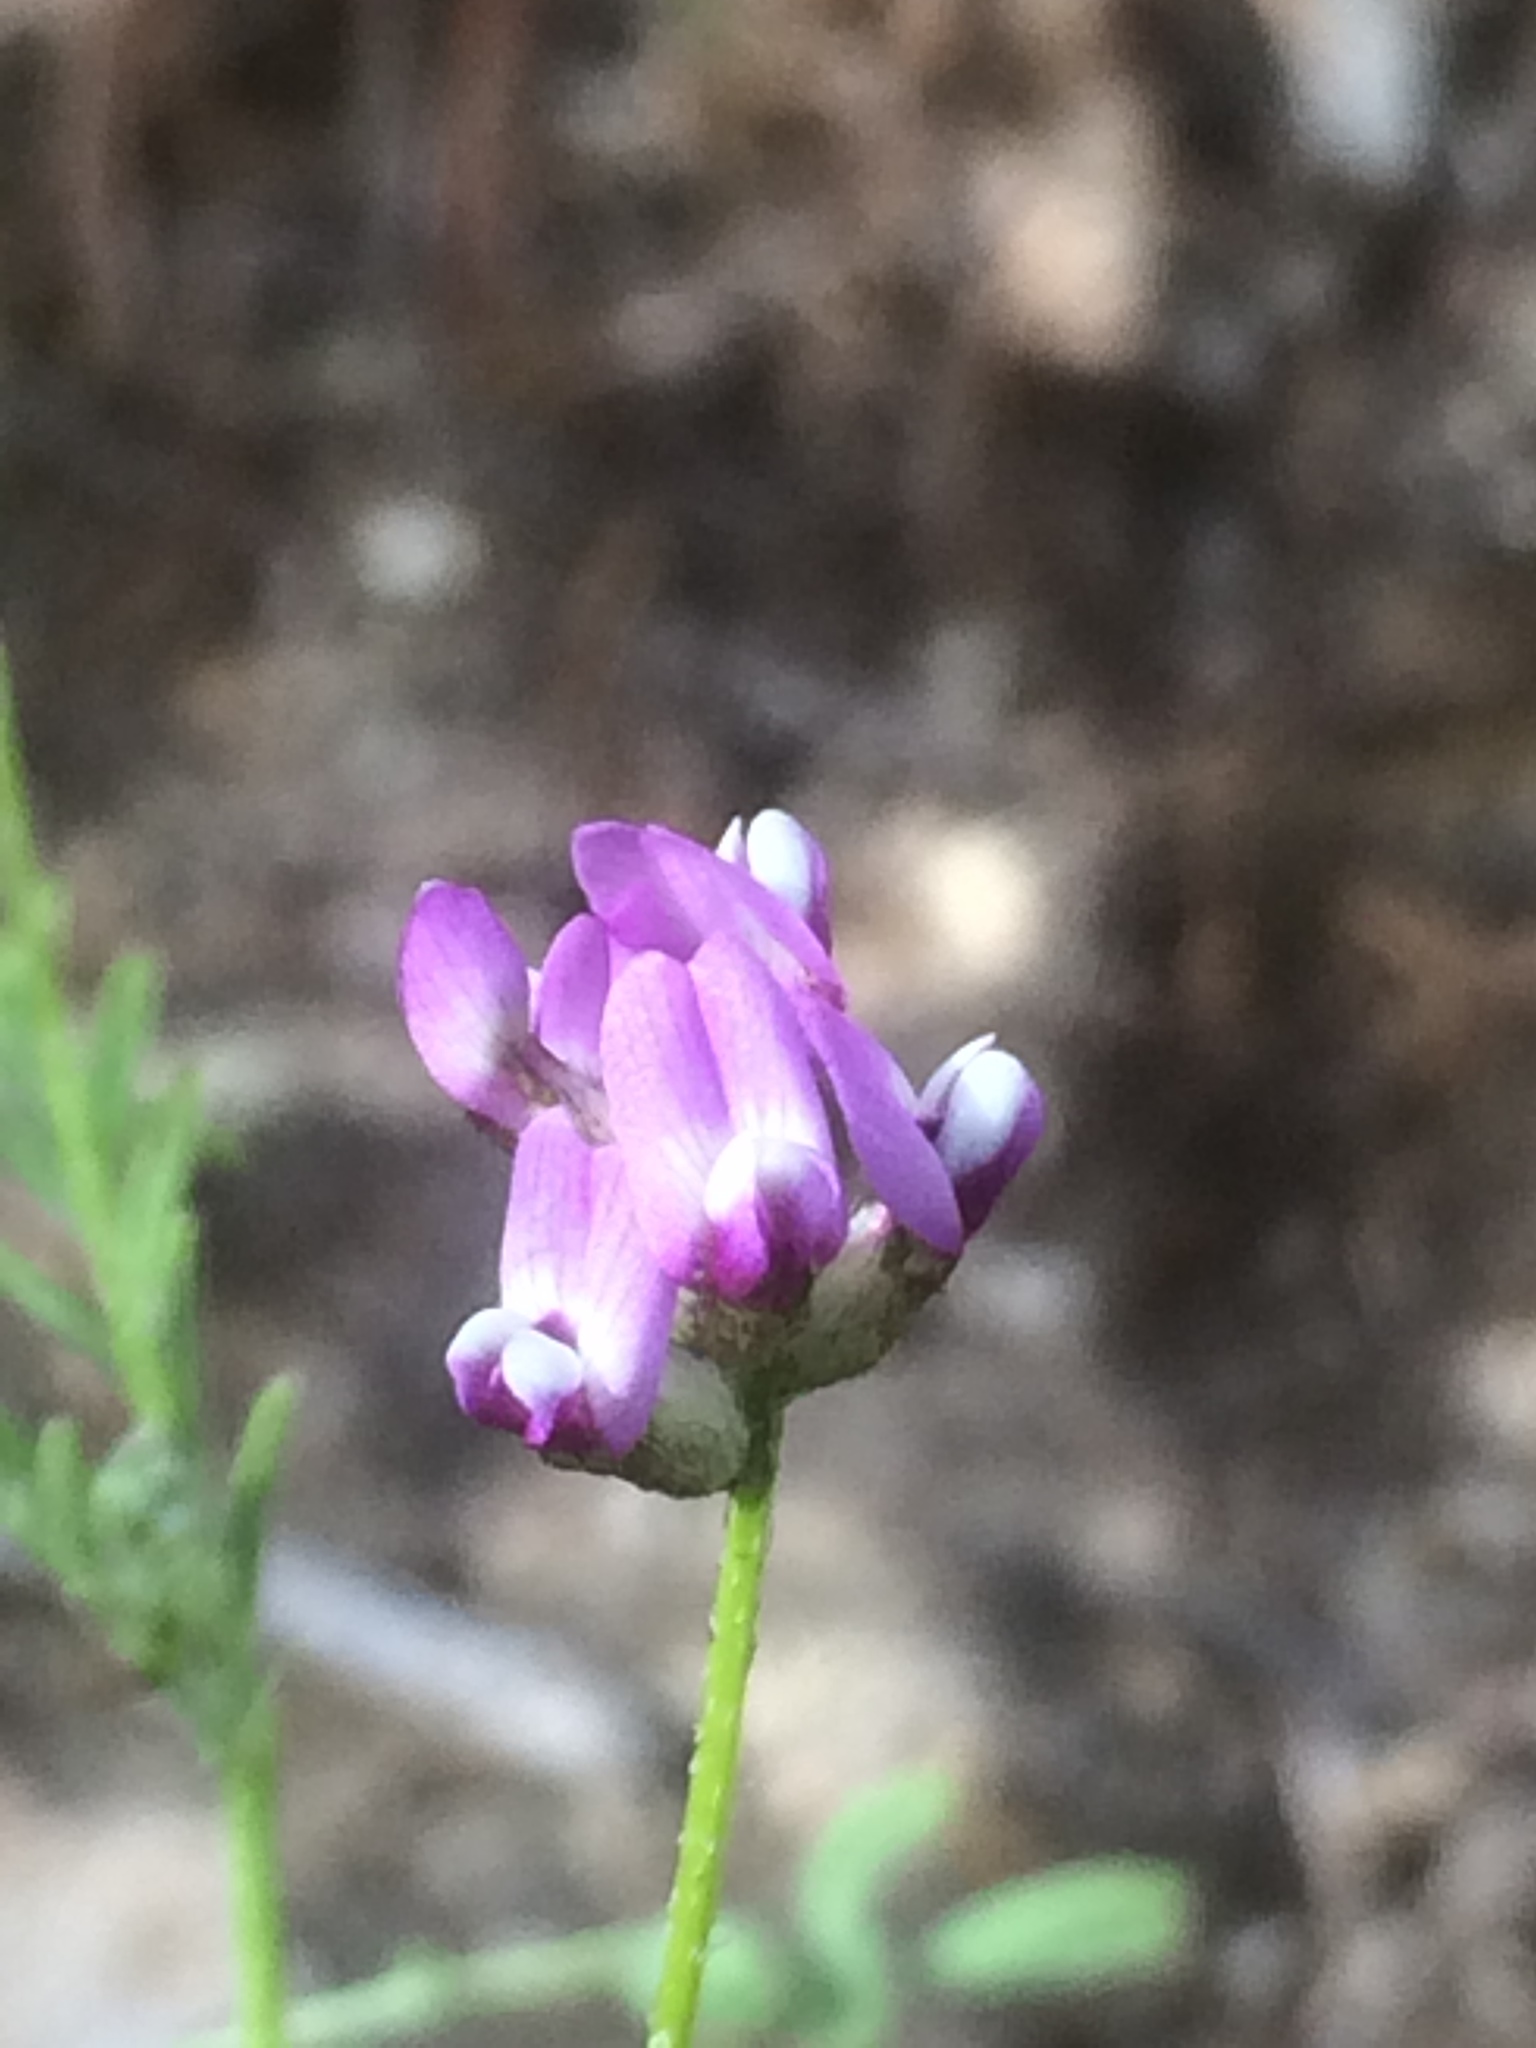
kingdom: Plantae
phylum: Tracheophyta
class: Magnoliopsida
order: Fabales
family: Fabaceae
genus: Astragalus
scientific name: Astragalus didymocarpus
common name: Dwarf white milkvetch
